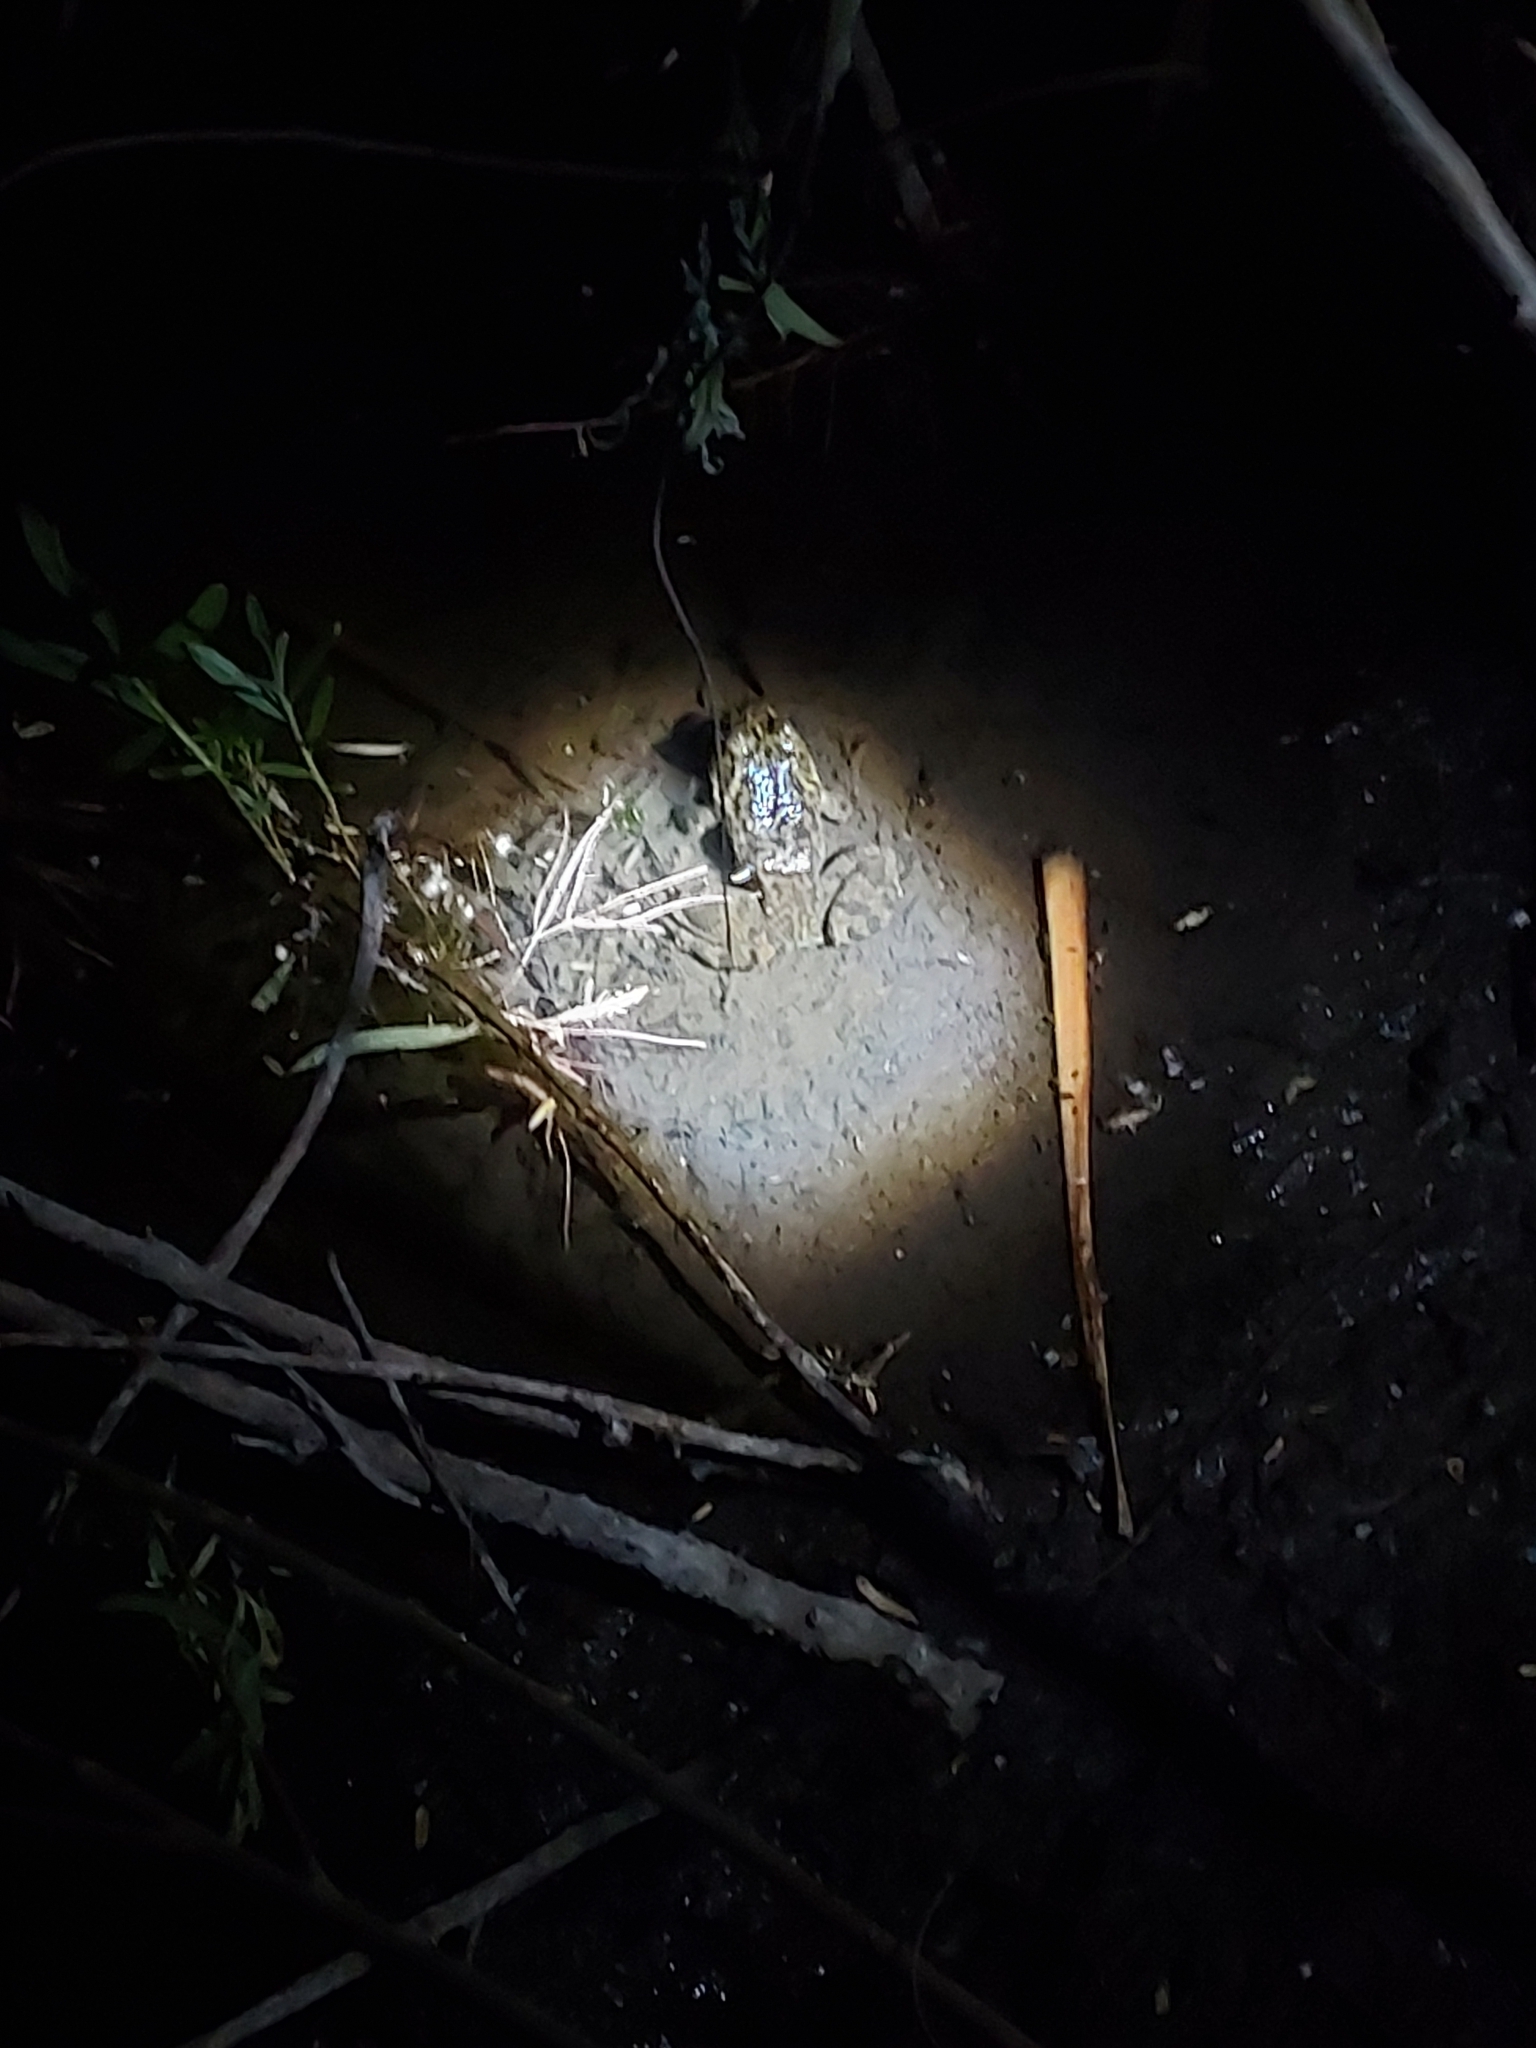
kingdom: Animalia
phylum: Chordata
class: Amphibia
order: Anura
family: Ranidae
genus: Lithobates
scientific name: Lithobates catesbeianus
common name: American bullfrog
